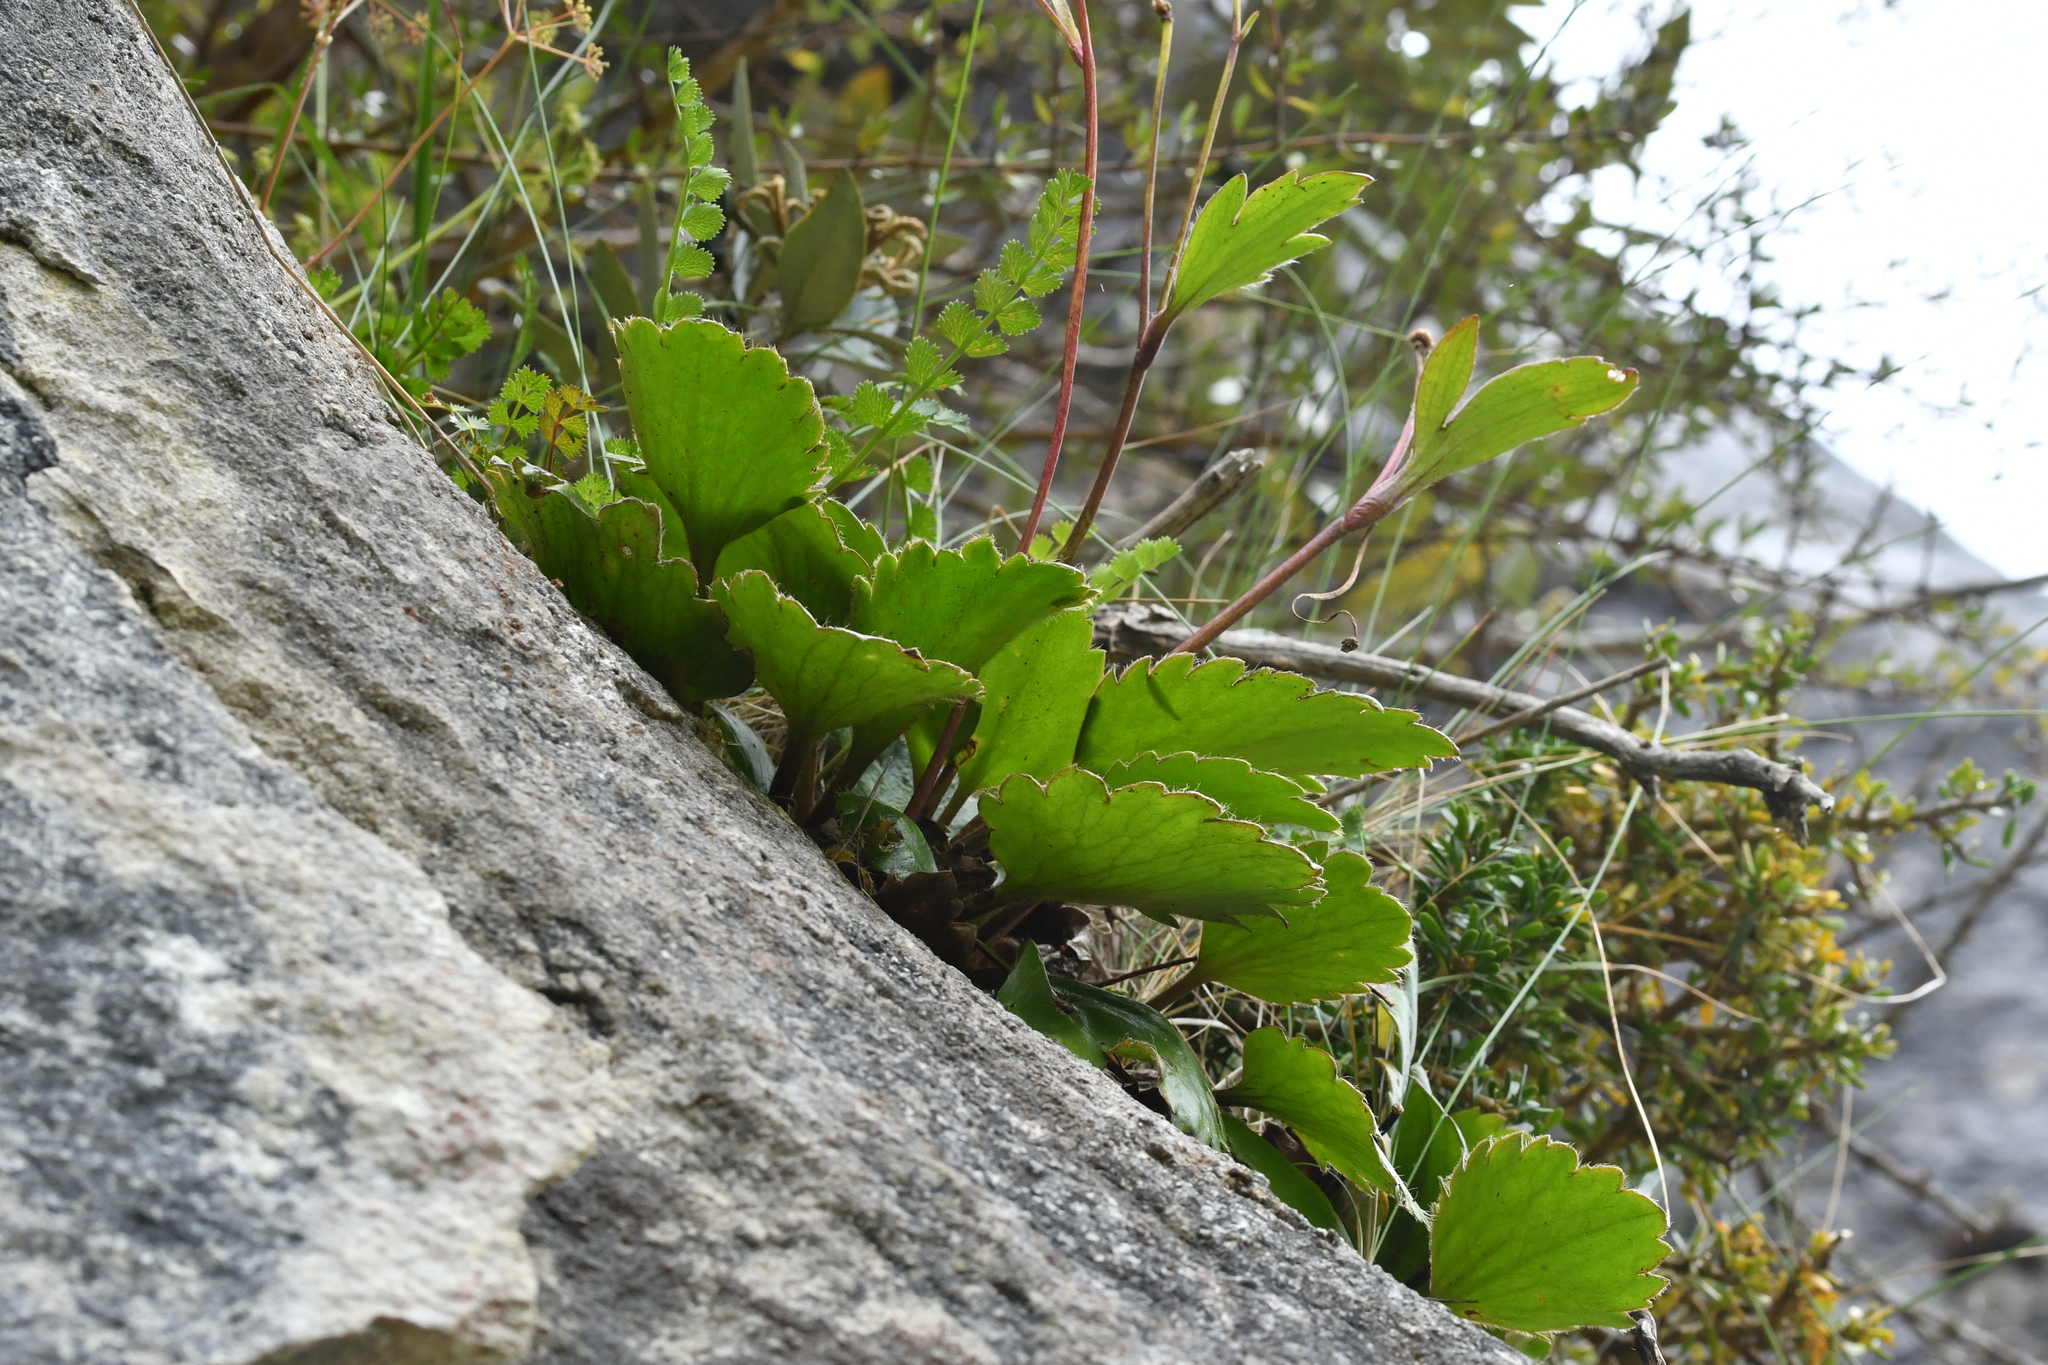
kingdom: Plantae
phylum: Tracheophyta
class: Magnoliopsida
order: Ranunculales
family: Ranunculaceae
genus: Ranunculus
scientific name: Ranunculus insignis
